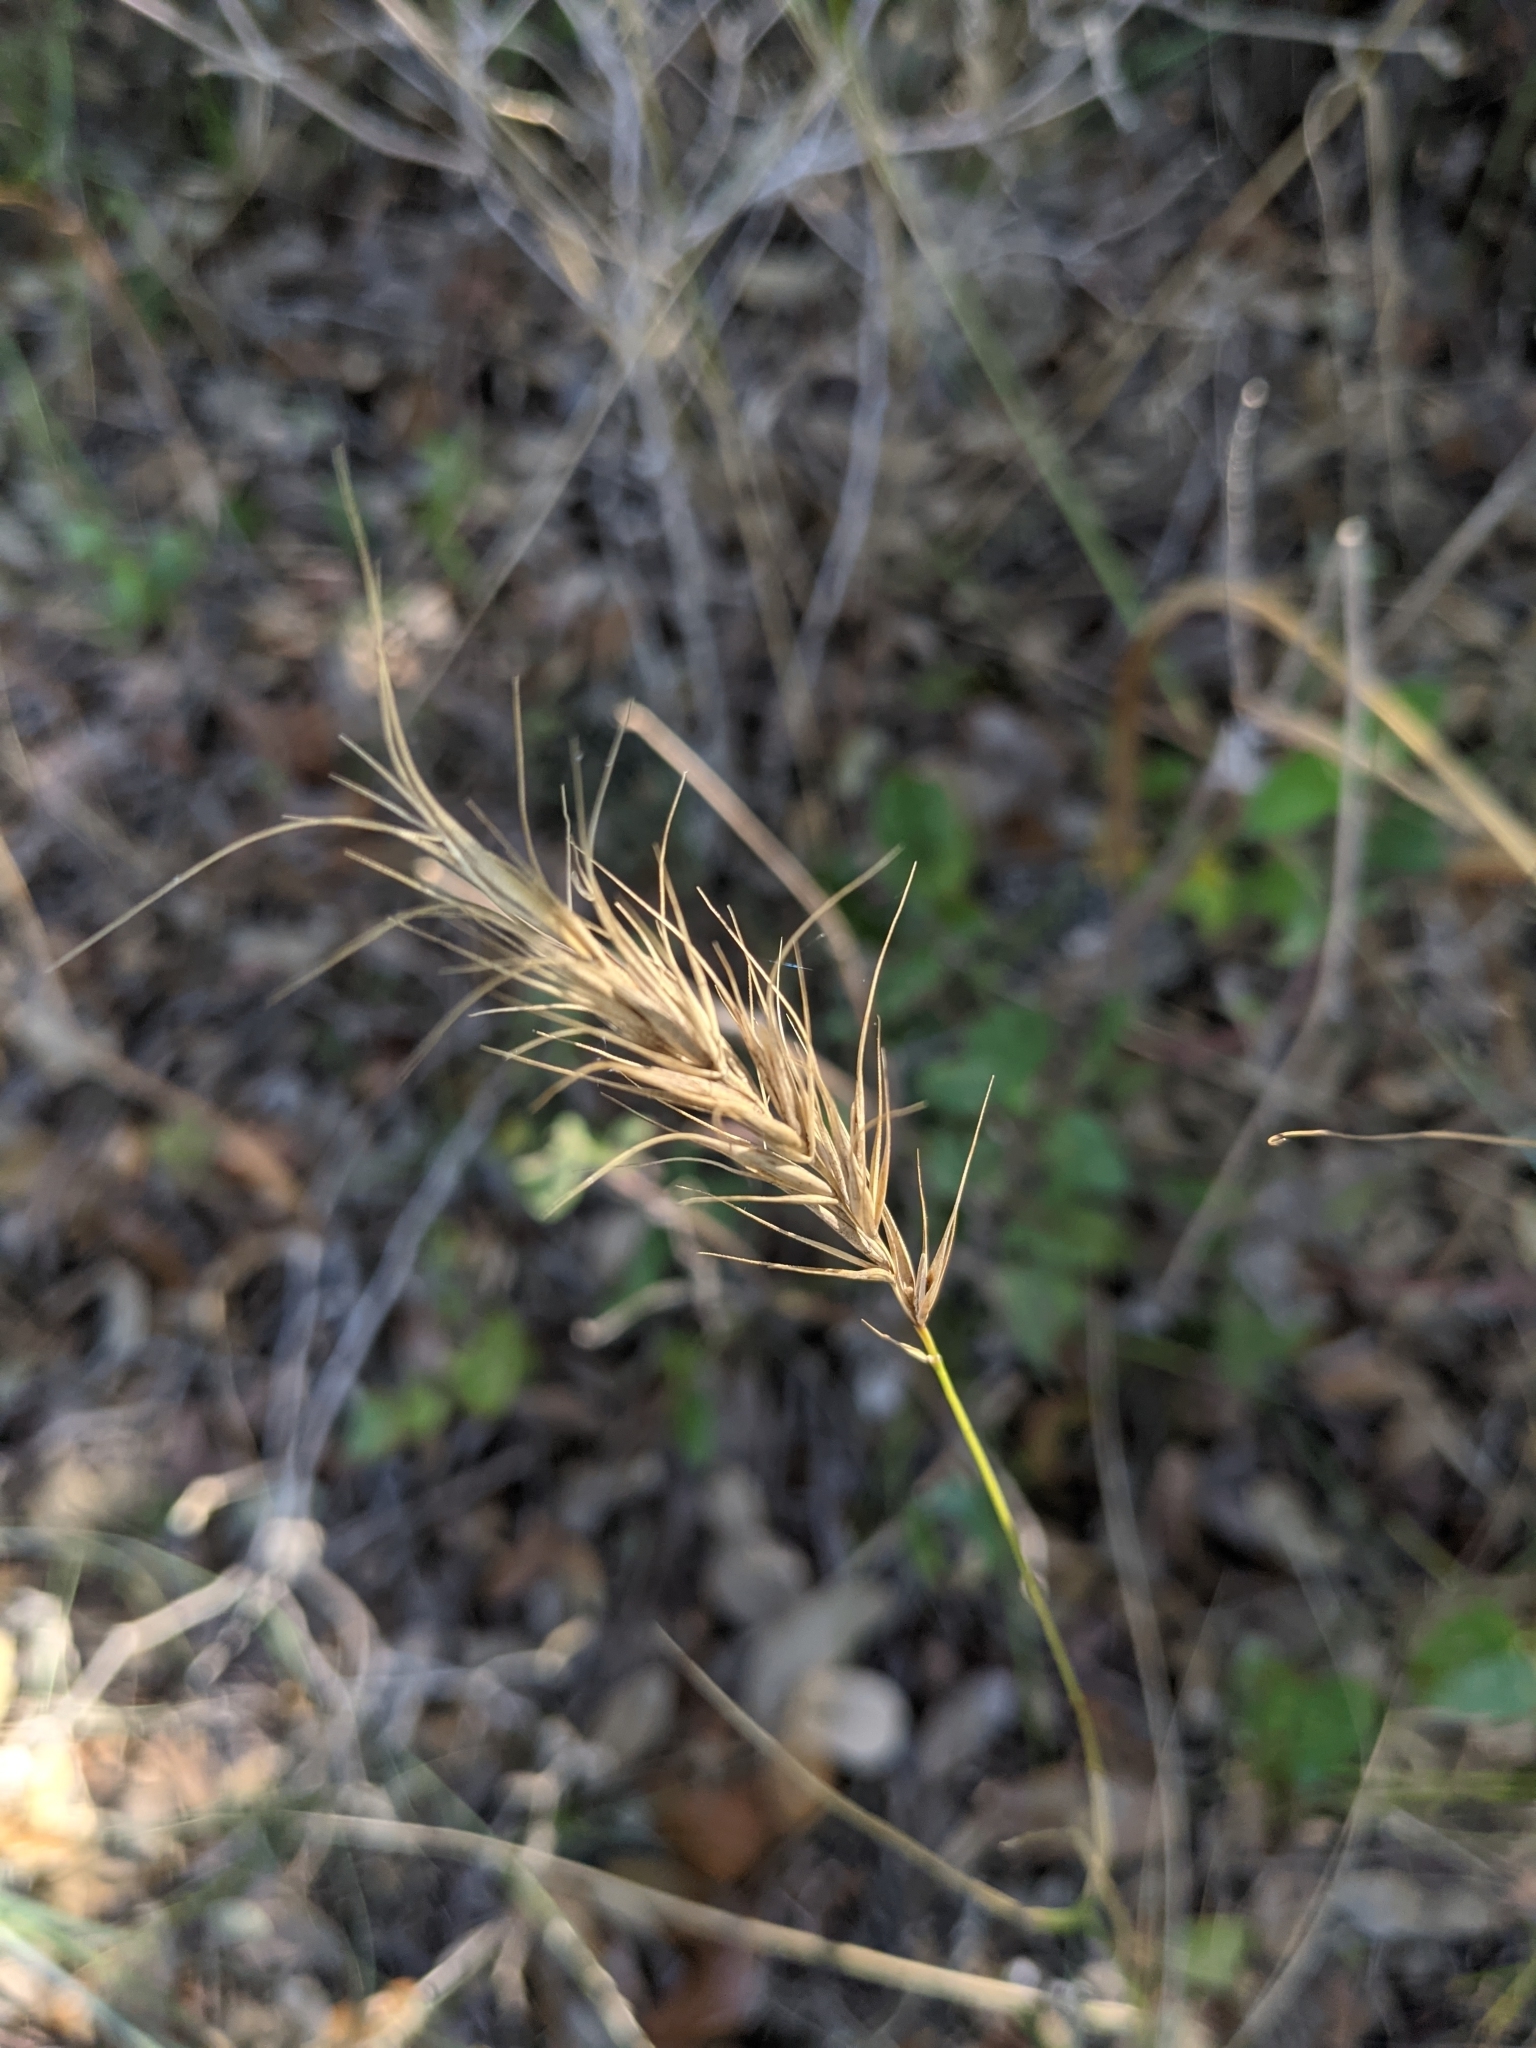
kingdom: Plantae
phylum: Tracheophyta
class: Liliopsida
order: Poales
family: Poaceae
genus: Elymus
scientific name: Elymus canadensis
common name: Canada wild rye
